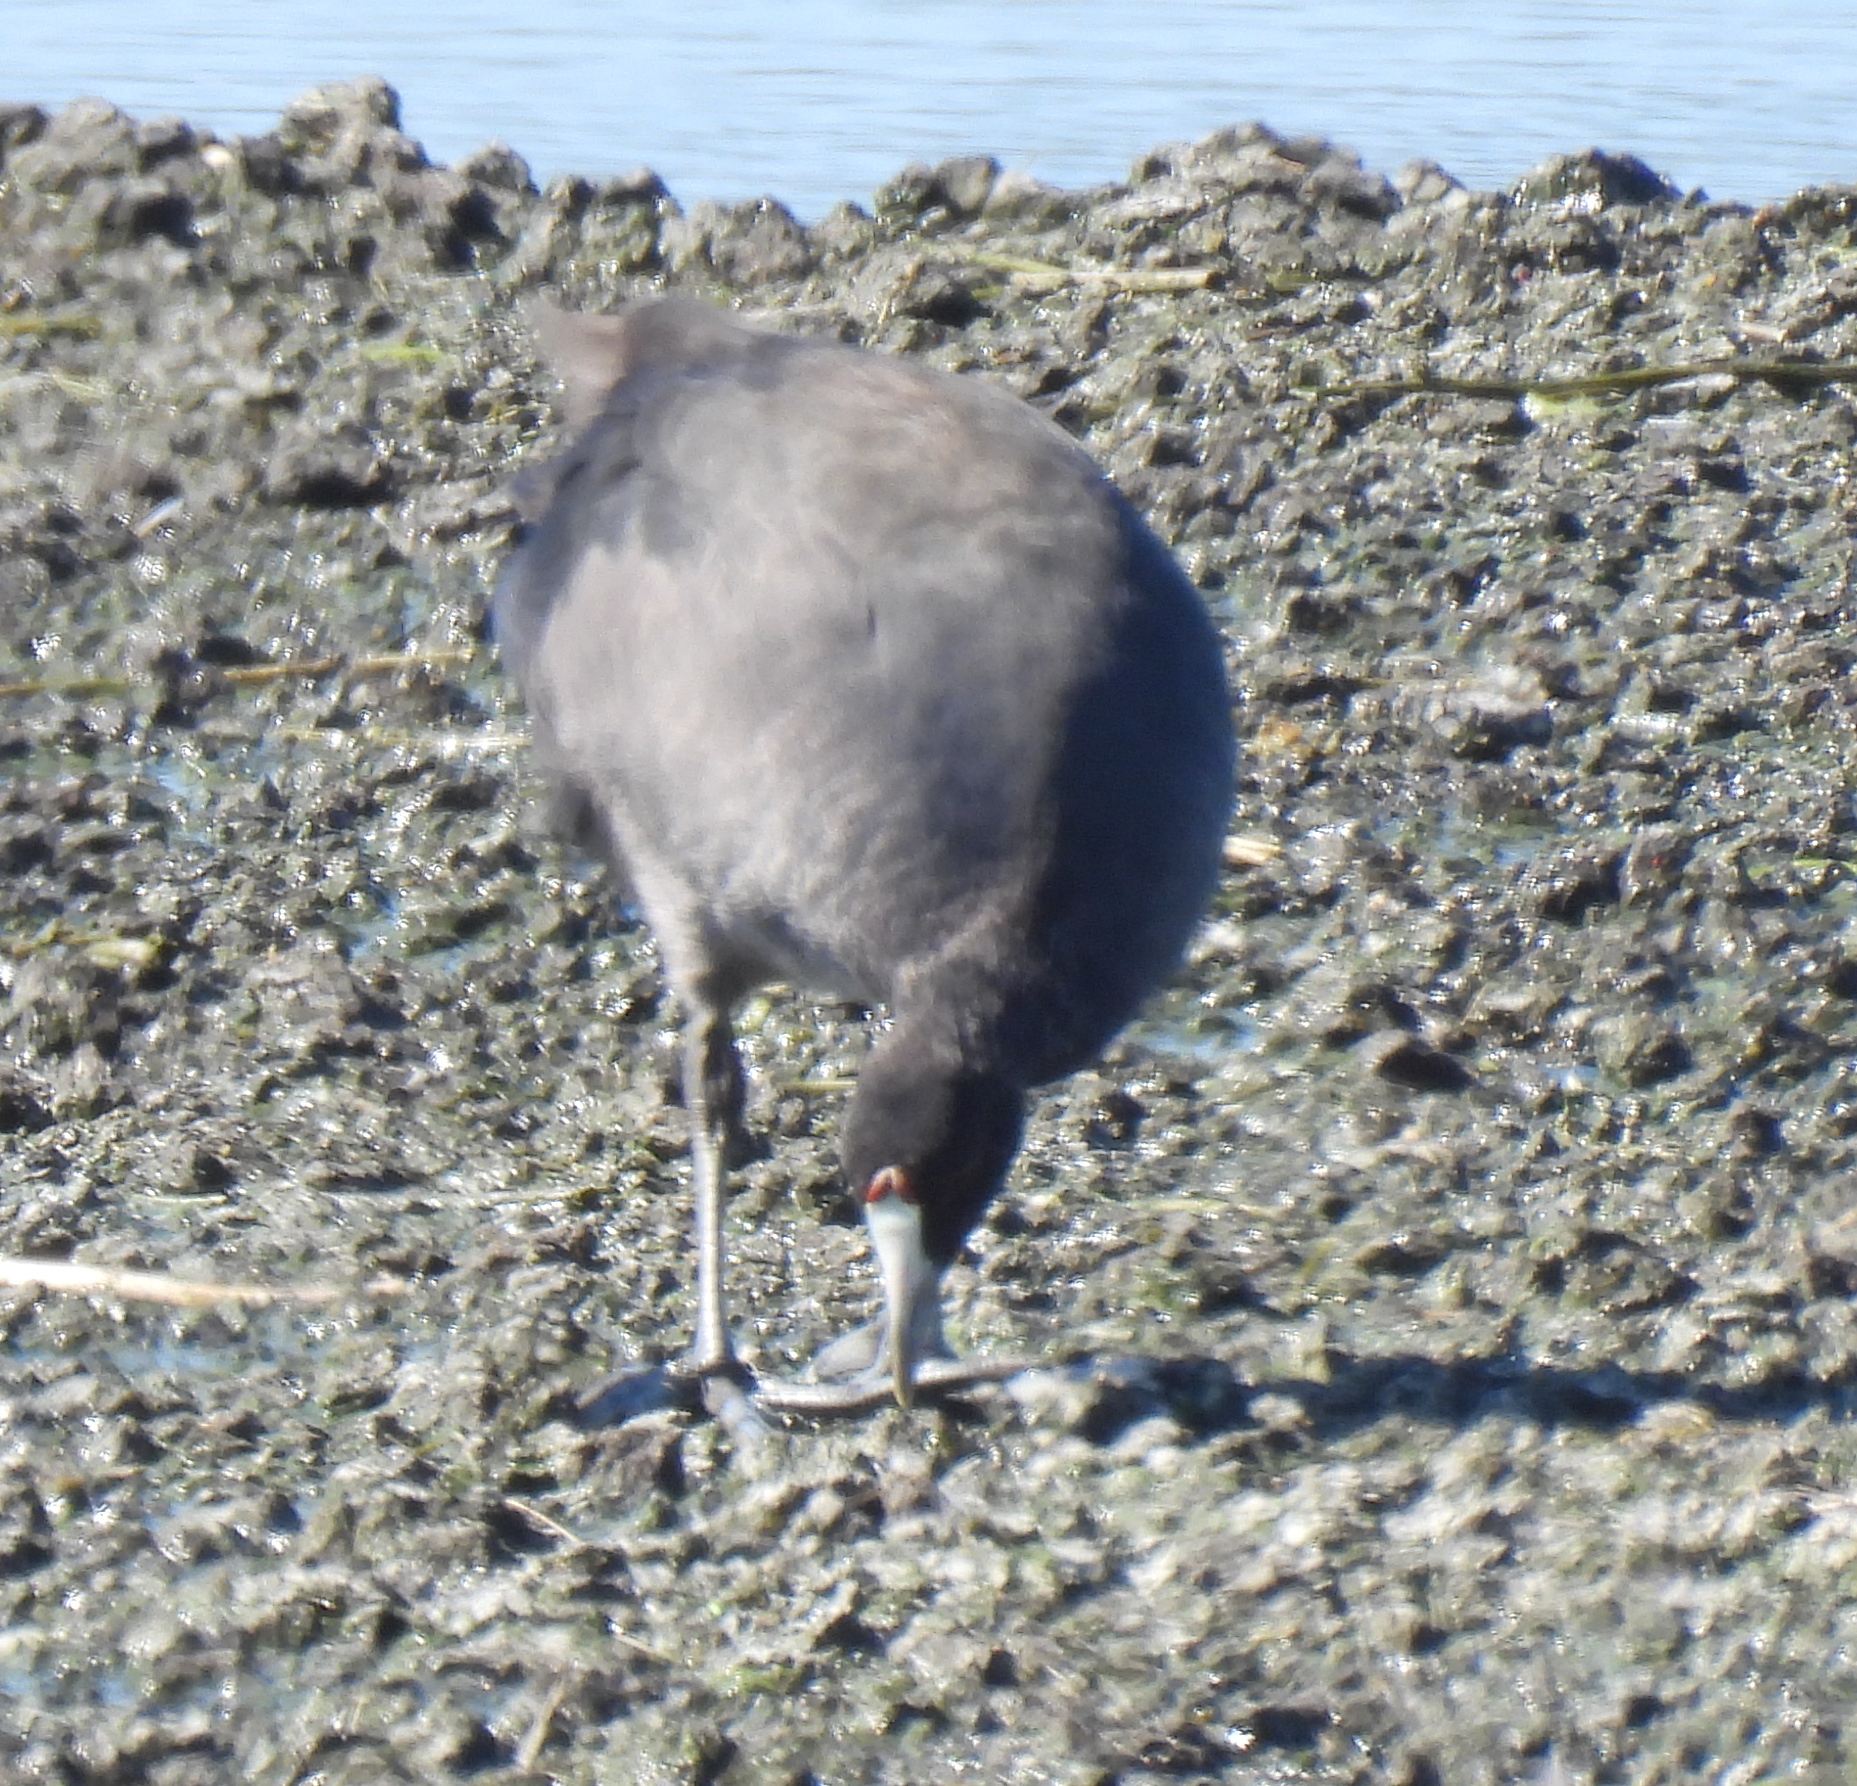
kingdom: Animalia
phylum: Chordata
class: Aves
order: Gruiformes
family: Rallidae
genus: Fulica
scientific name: Fulica cristata
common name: Red-knobbed coot
